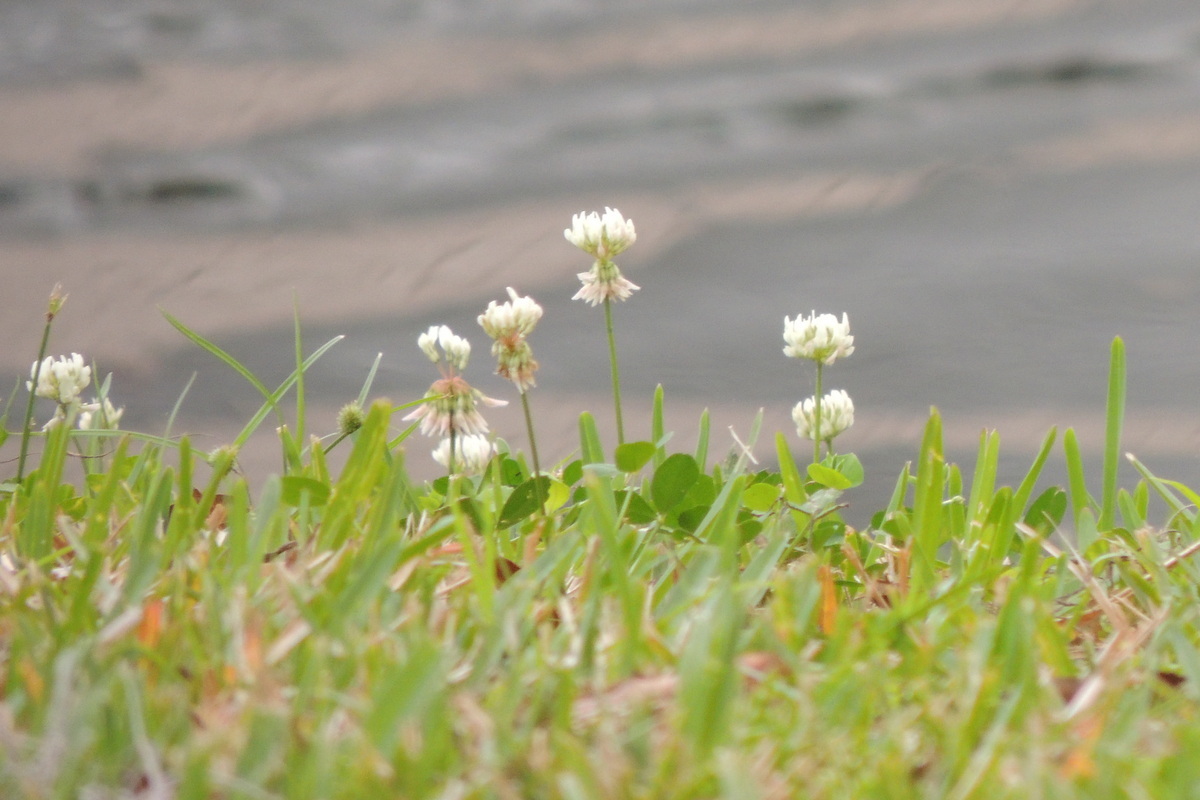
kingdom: Plantae
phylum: Tracheophyta
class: Magnoliopsida
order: Fabales
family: Fabaceae
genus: Trifolium
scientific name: Trifolium repens
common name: White clover
